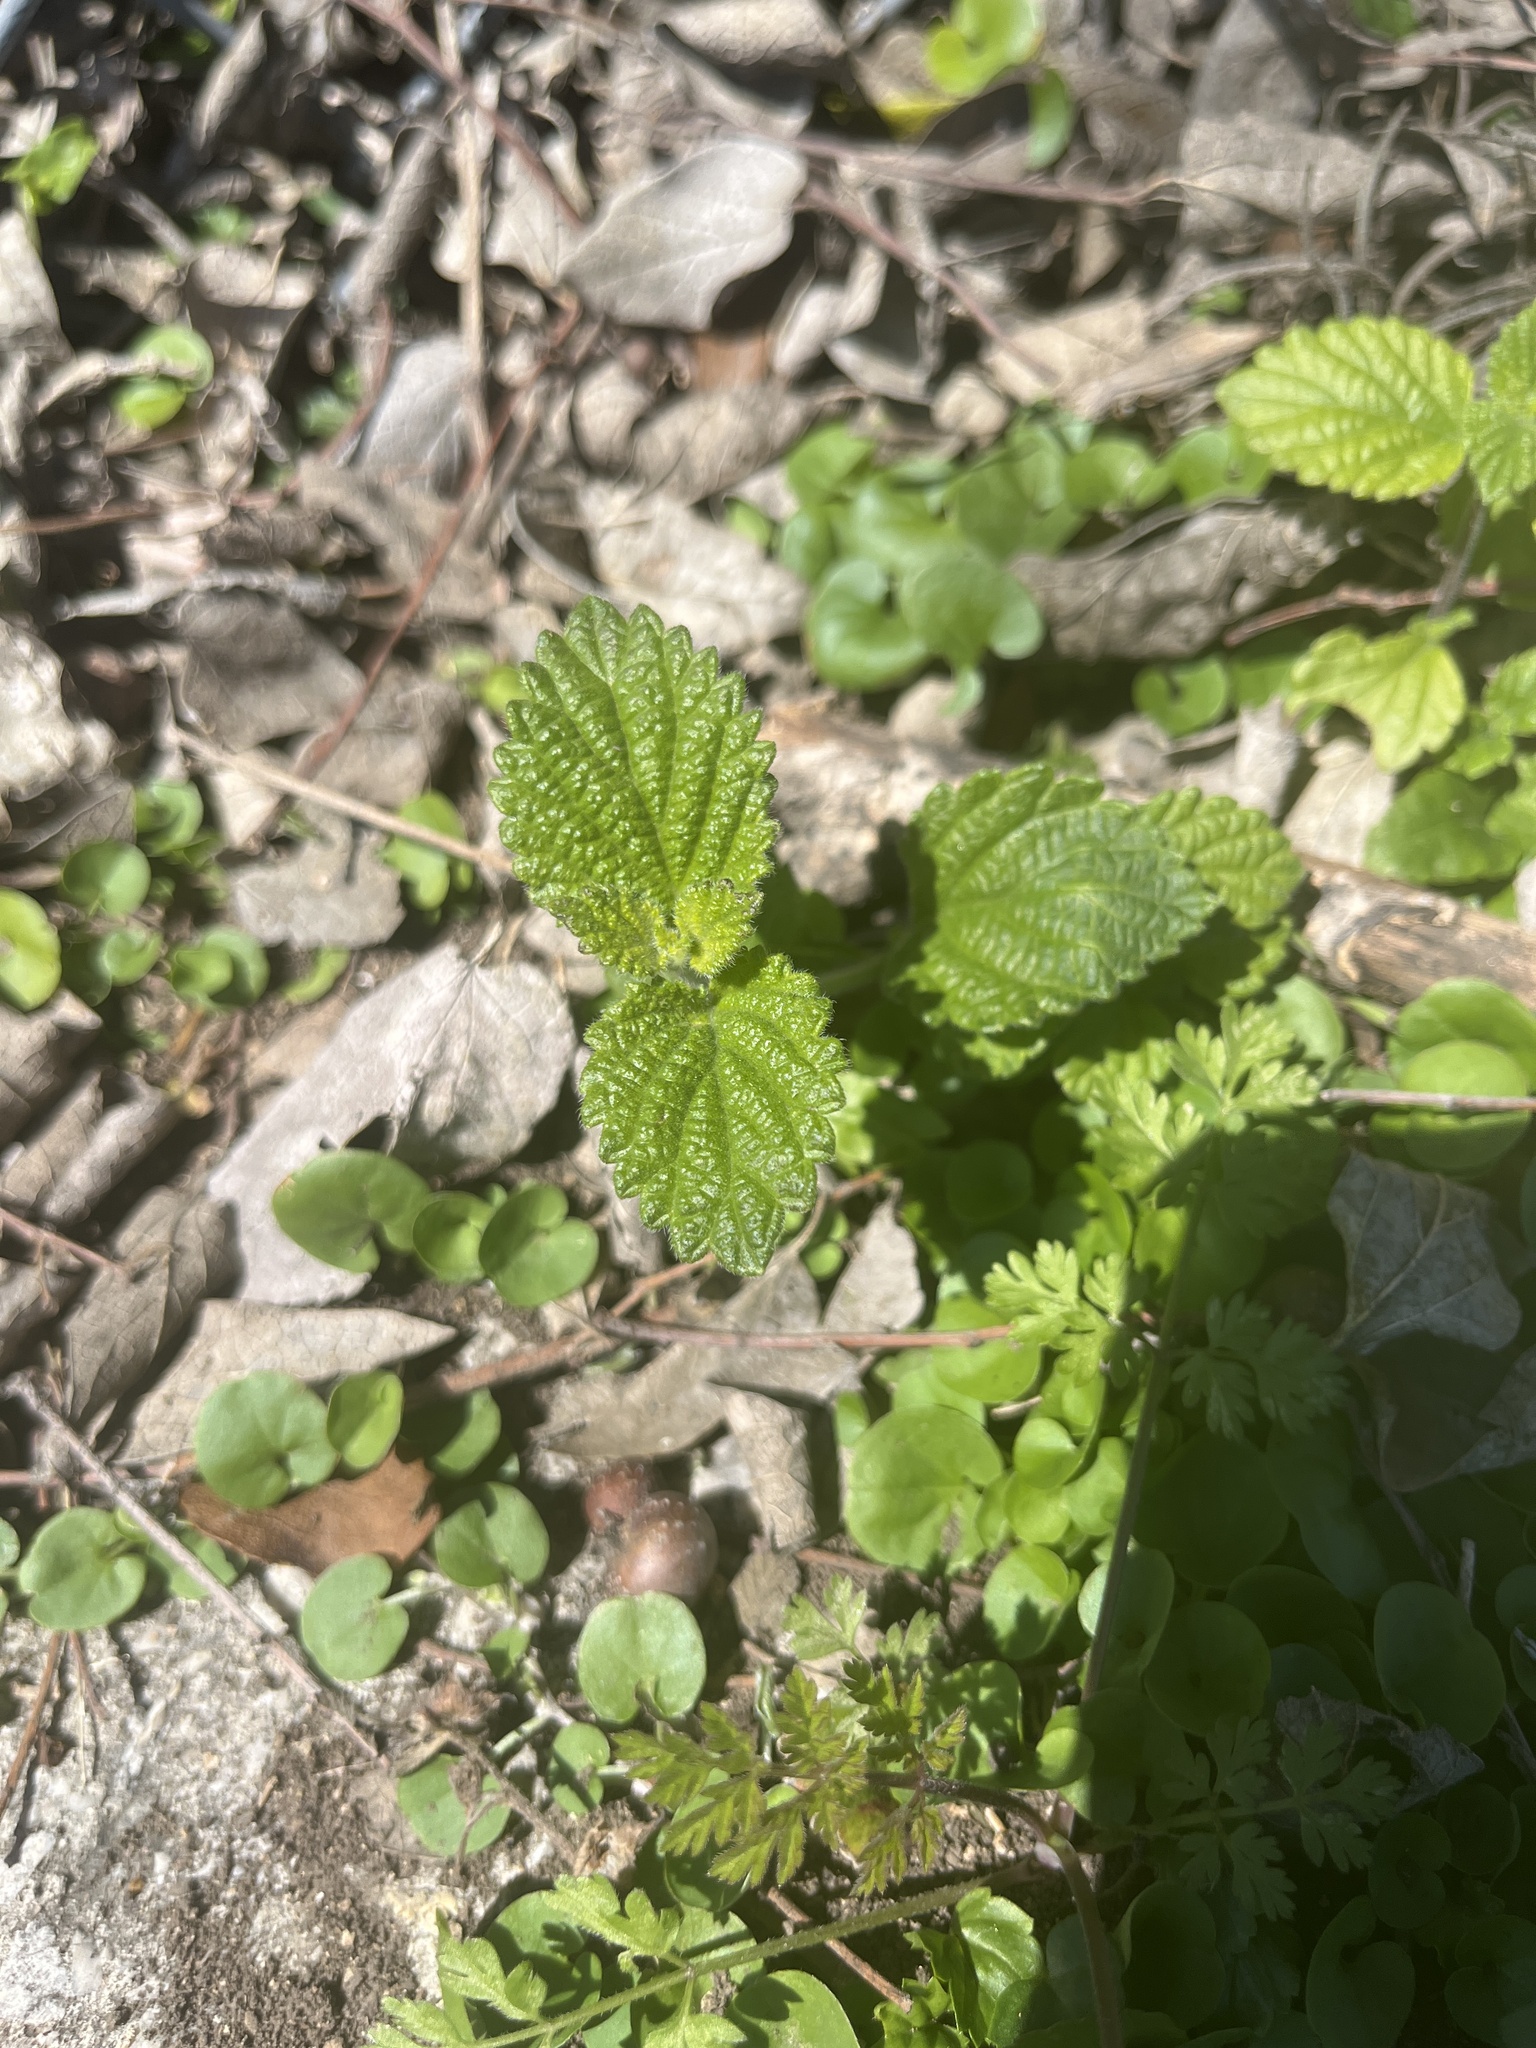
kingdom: Plantae
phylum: Tracheophyta
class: Magnoliopsida
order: Lamiales
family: Verbenaceae
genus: Lantana
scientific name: Lantana montevidensis
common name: Trailing shrubverbena
